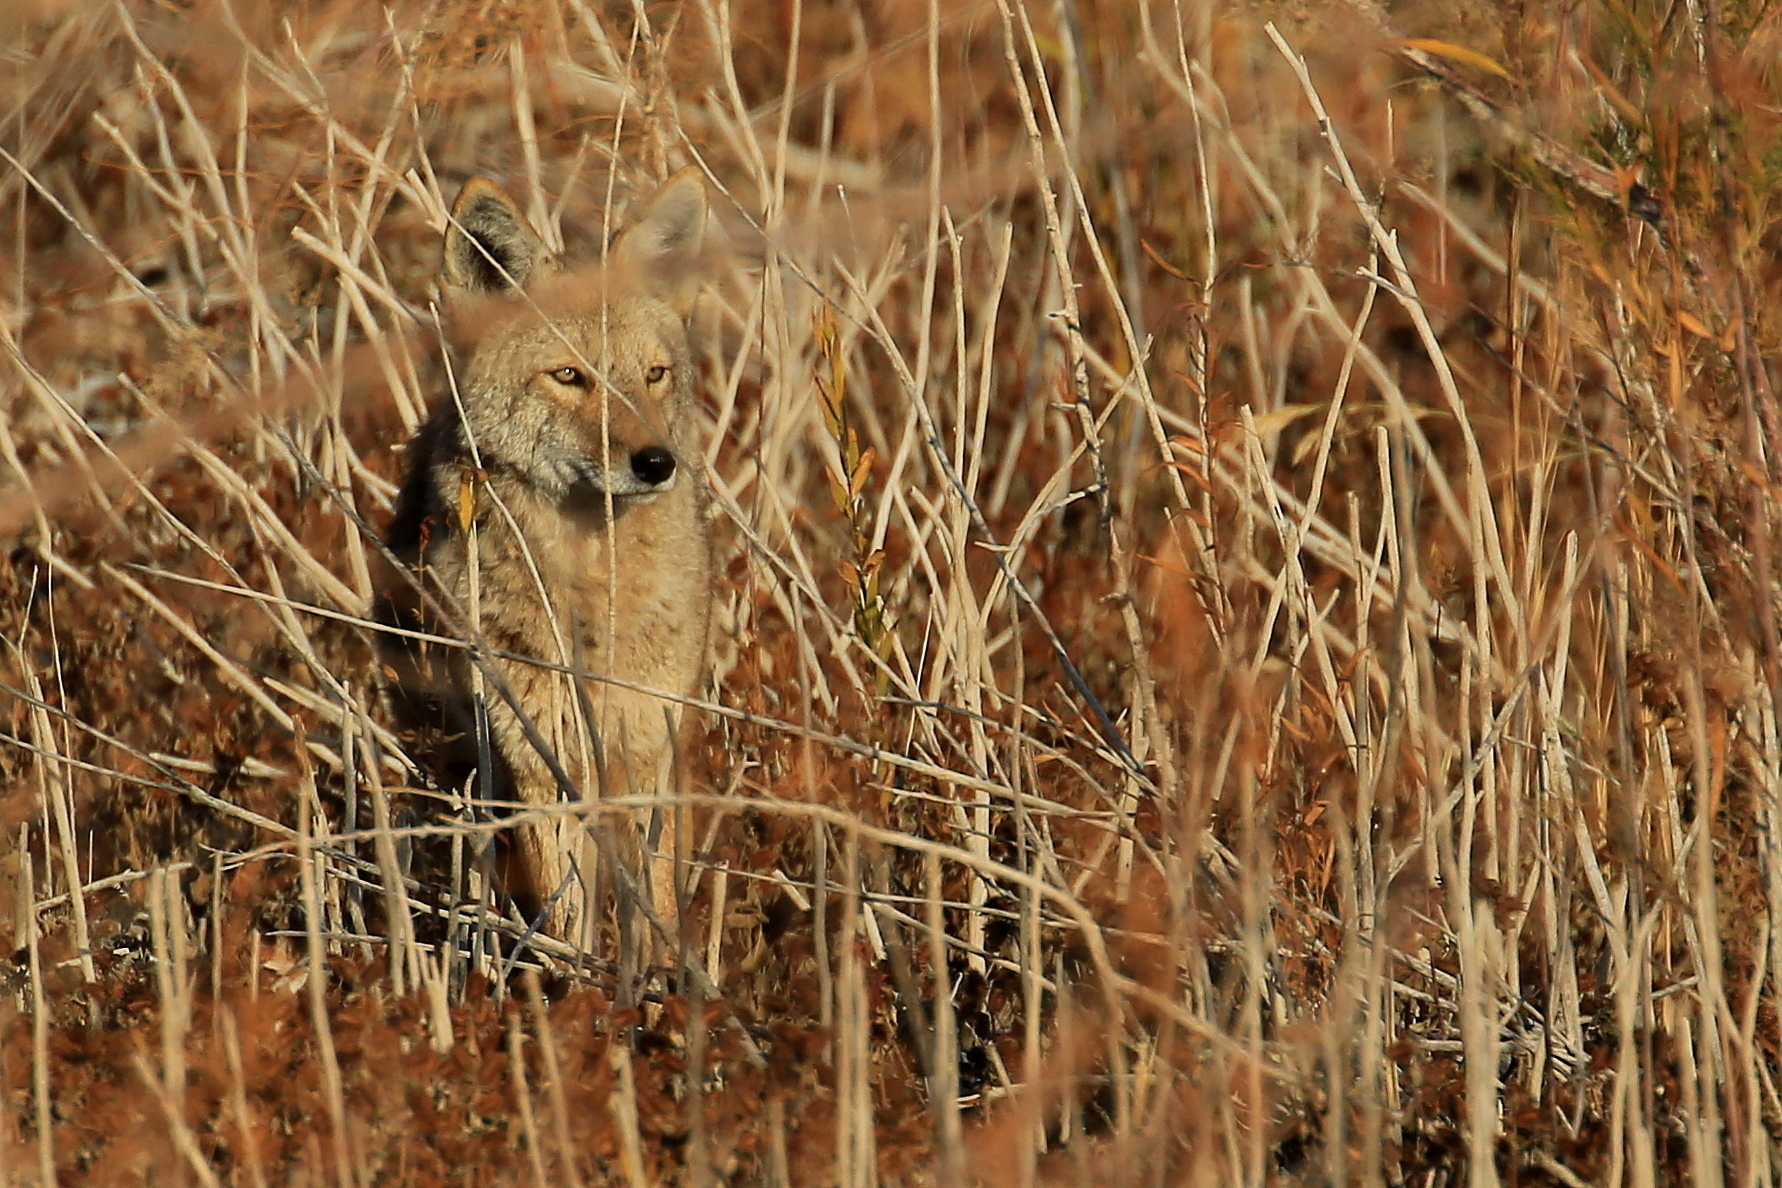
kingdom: Animalia
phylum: Chordata
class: Mammalia
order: Carnivora
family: Canidae
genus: Canis
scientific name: Canis latrans
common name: Coyote
